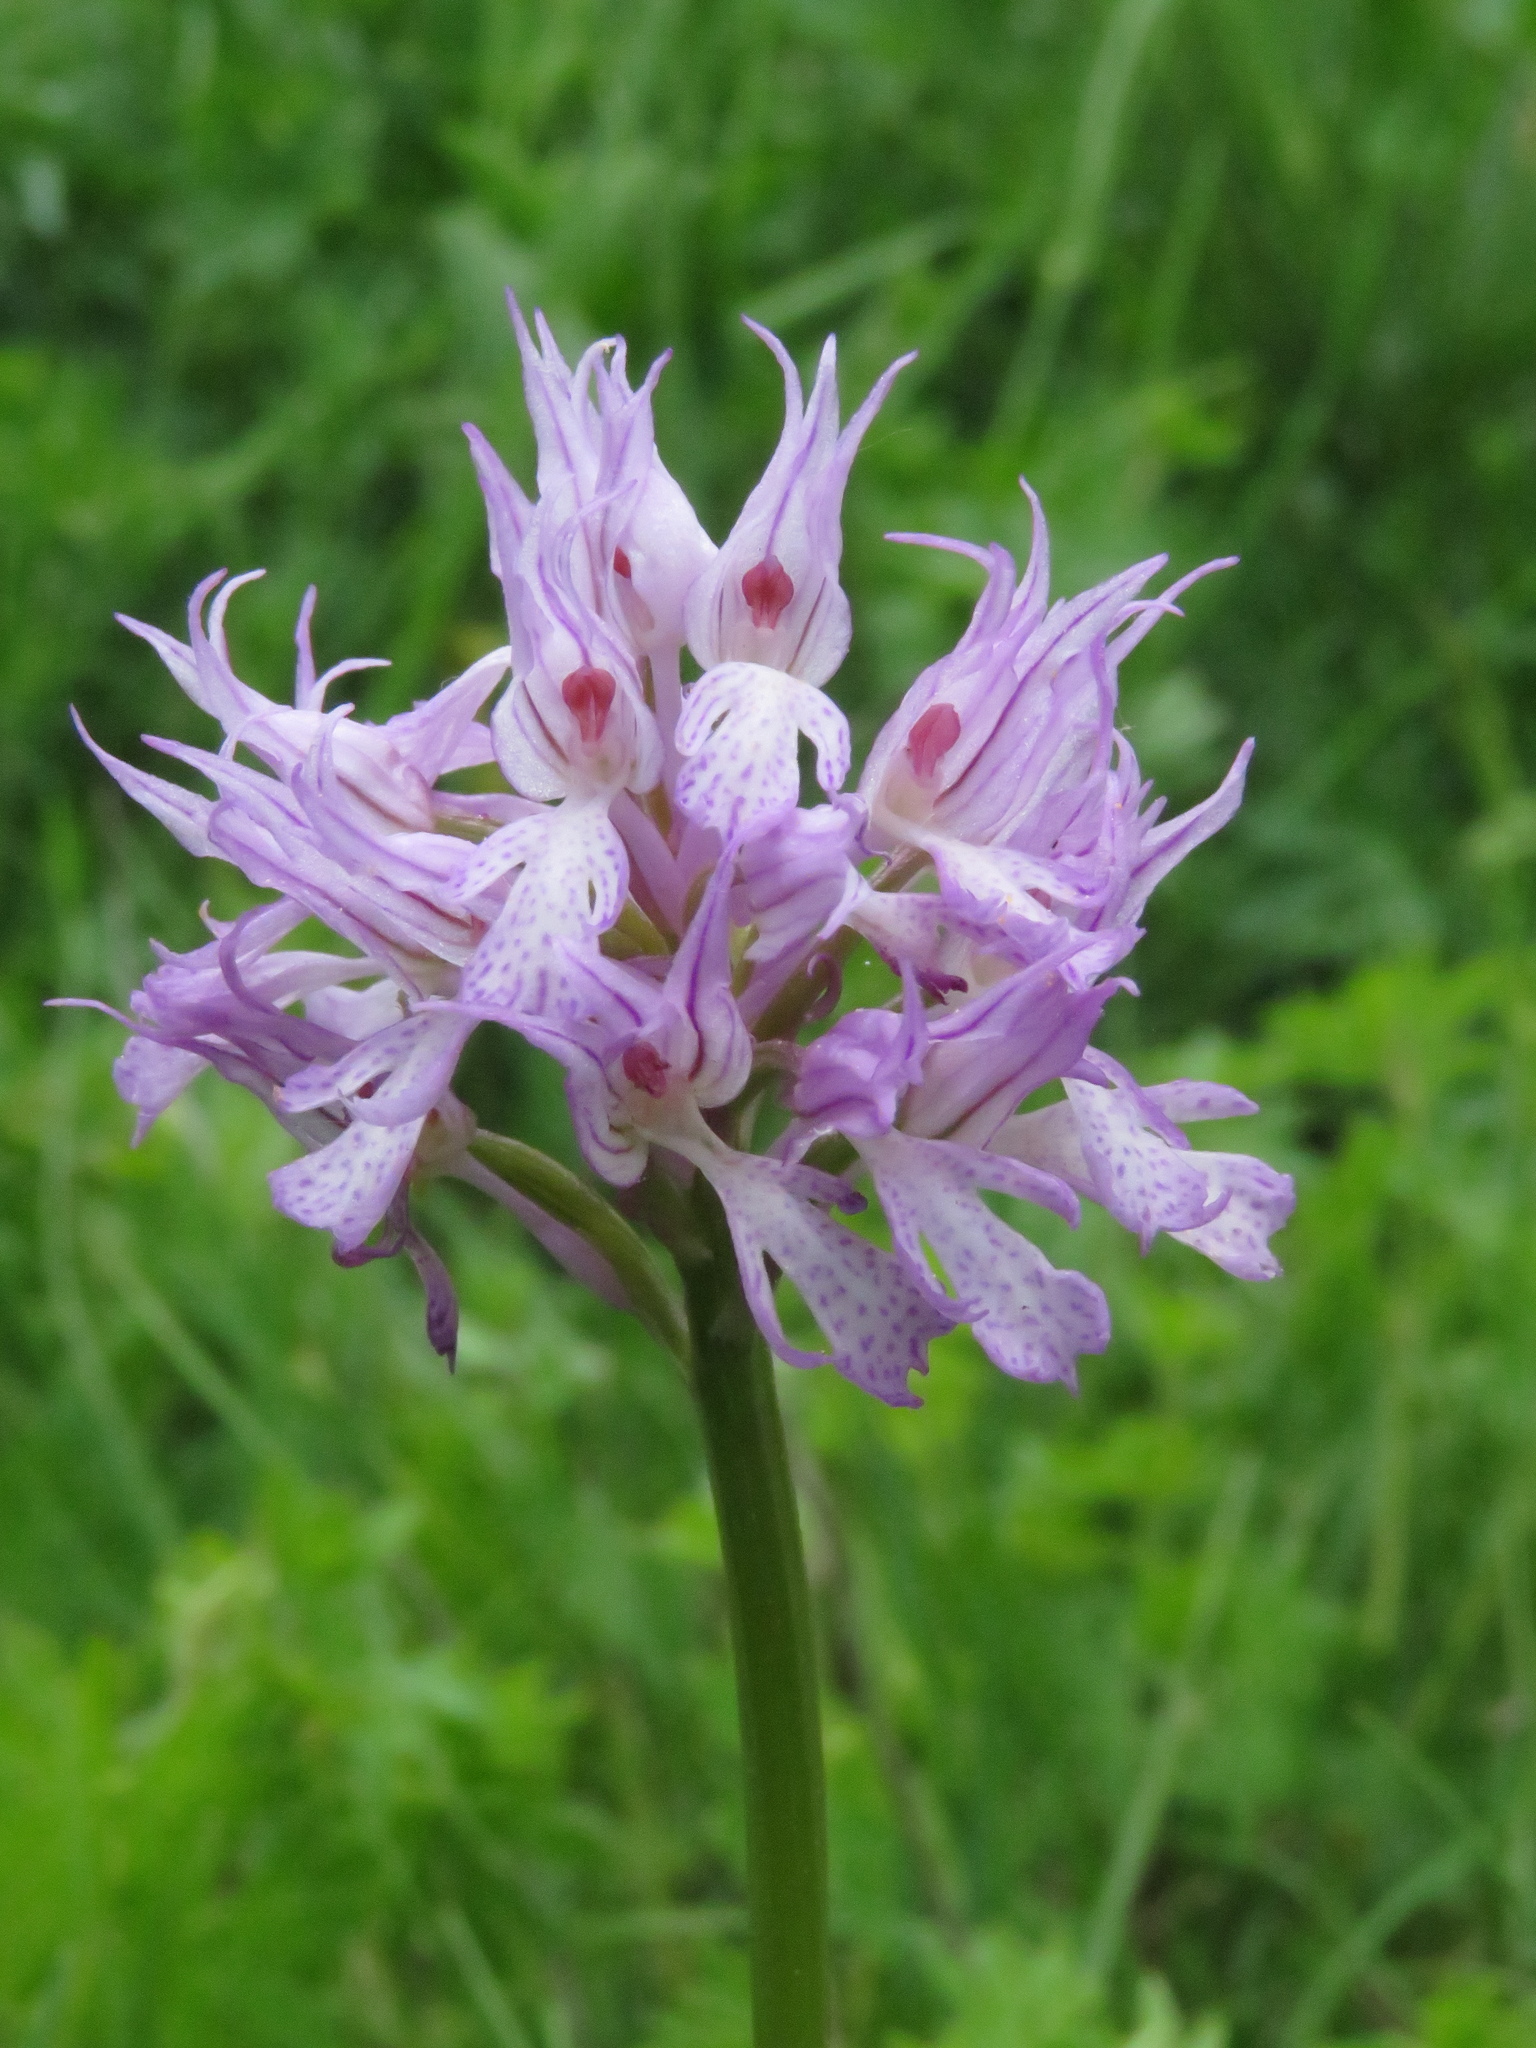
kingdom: Plantae
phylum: Tracheophyta
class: Liliopsida
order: Asparagales
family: Orchidaceae
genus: Neotinea
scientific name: Neotinea tridentata
